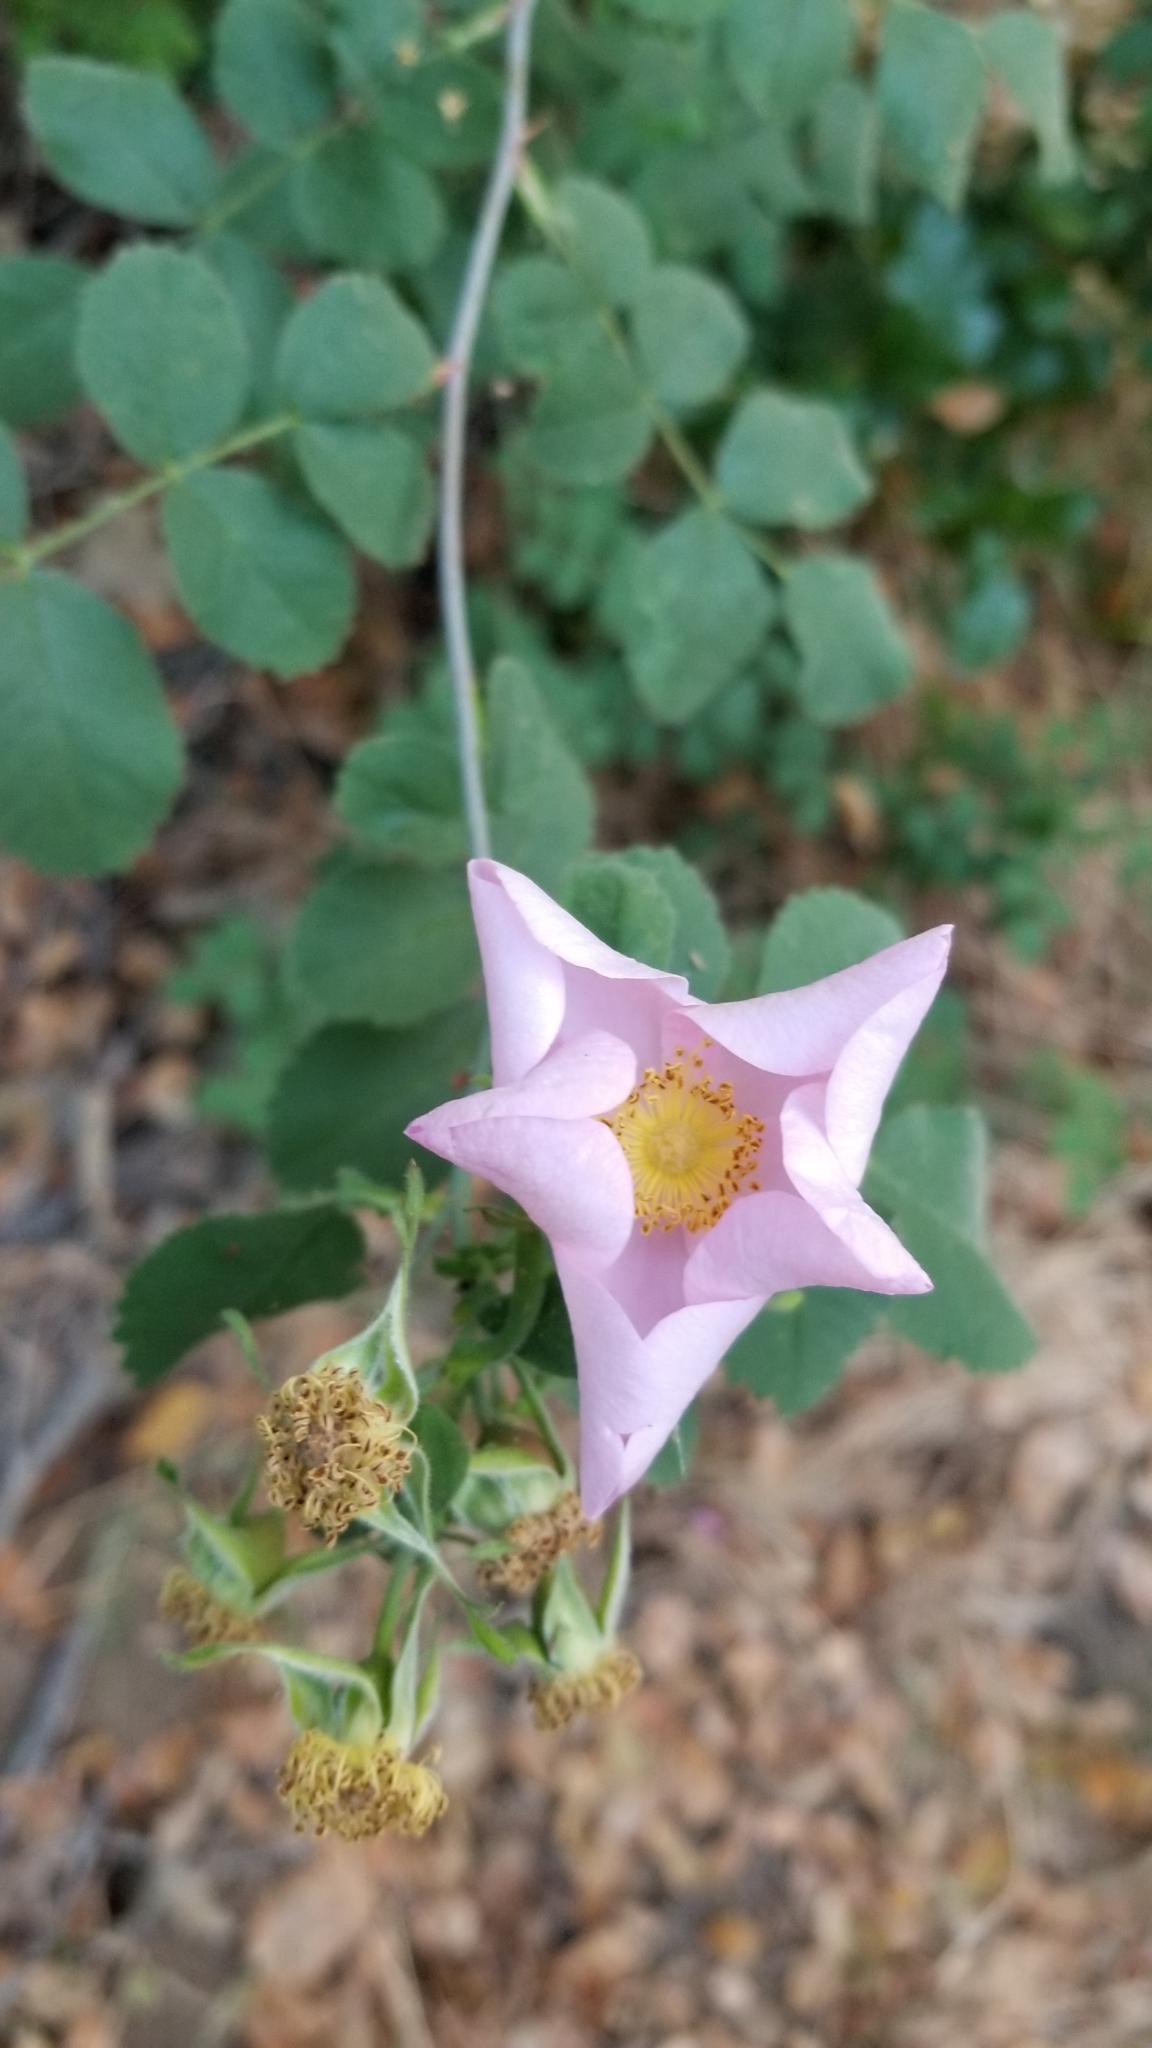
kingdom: Plantae
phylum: Tracheophyta
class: Magnoliopsida
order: Rosales
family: Rosaceae
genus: Rosa
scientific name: Rosa californica
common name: California rose
